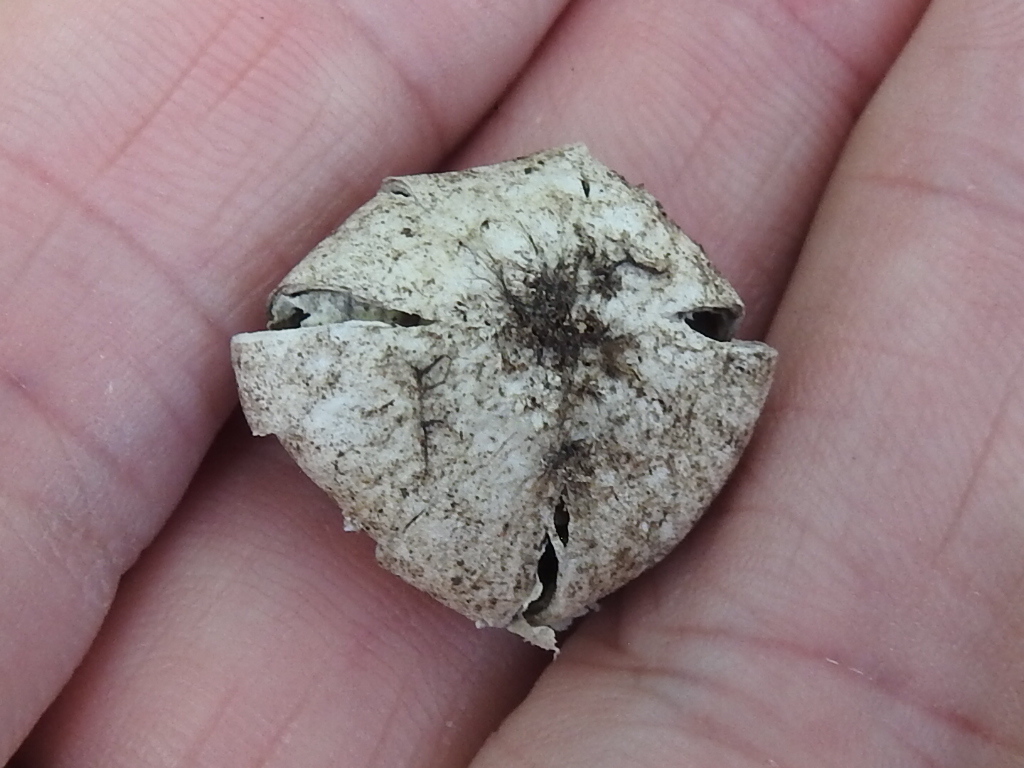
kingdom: Fungi
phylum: Basidiomycota
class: Agaricomycetes
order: Boletales
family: Diplocystidiaceae
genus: Astraeus
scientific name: Astraeus morganii
